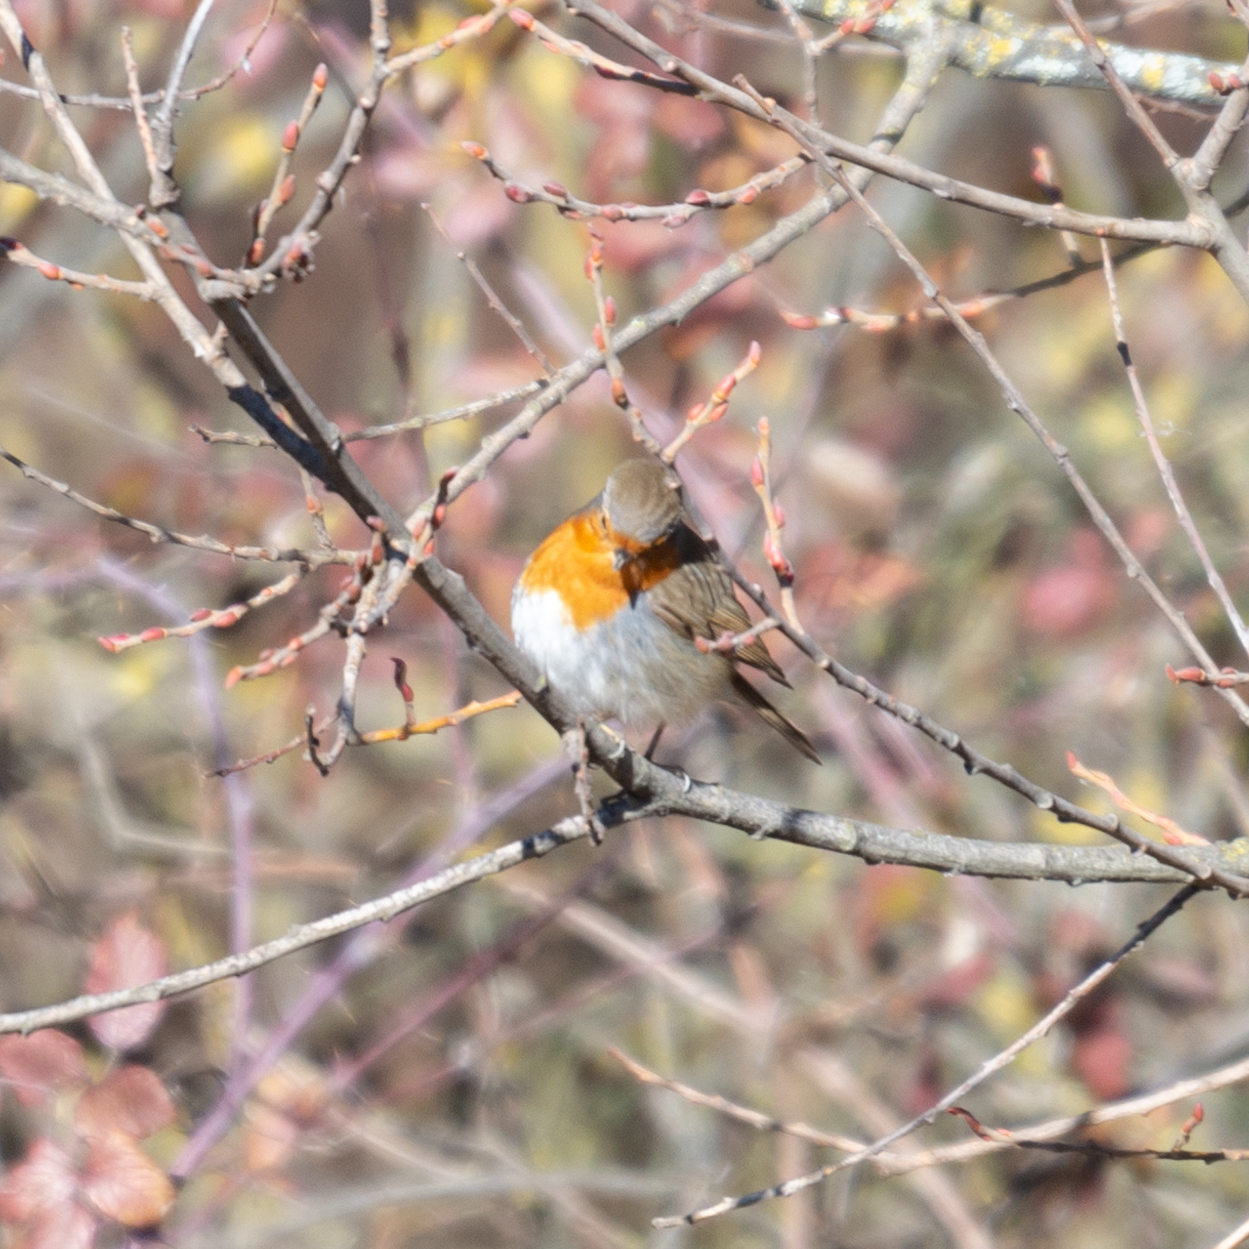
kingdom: Animalia
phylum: Chordata
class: Aves
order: Passeriformes
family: Muscicapidae
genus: Erithacus
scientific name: Erithacus rubecula
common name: European robin
